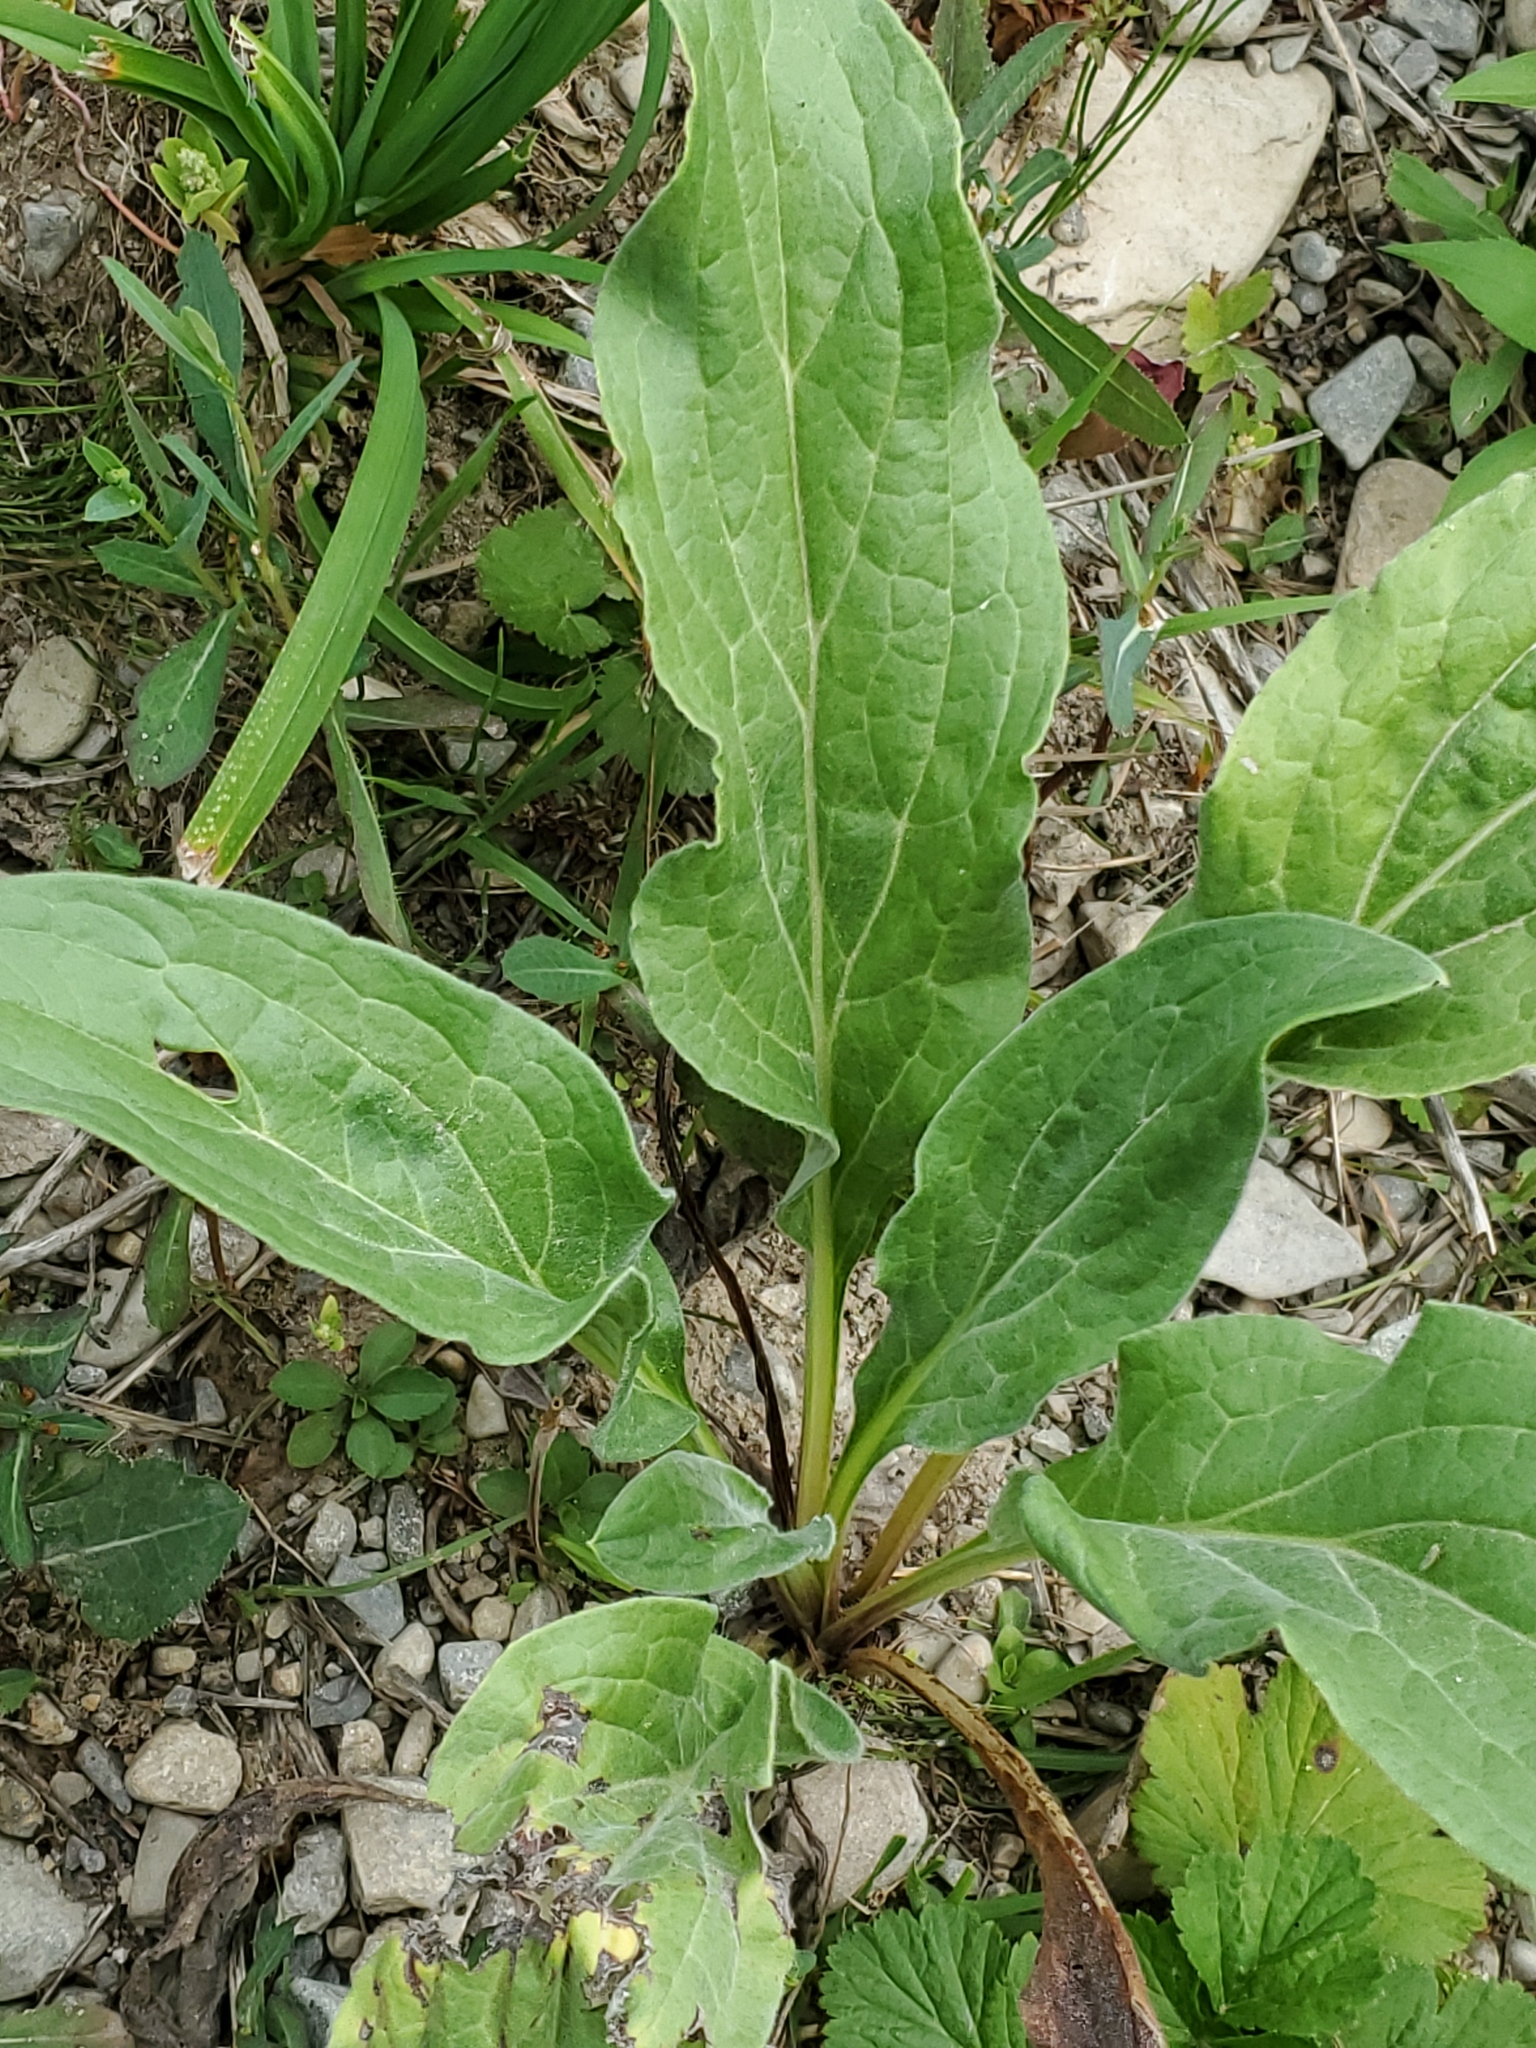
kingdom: Plantae
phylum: Tracheophyta
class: Magnoliopsida
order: Boraginales
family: Boraginaceae
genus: Cynoglossum
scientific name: Cynoglossum officinale
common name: Hound's-tongue
